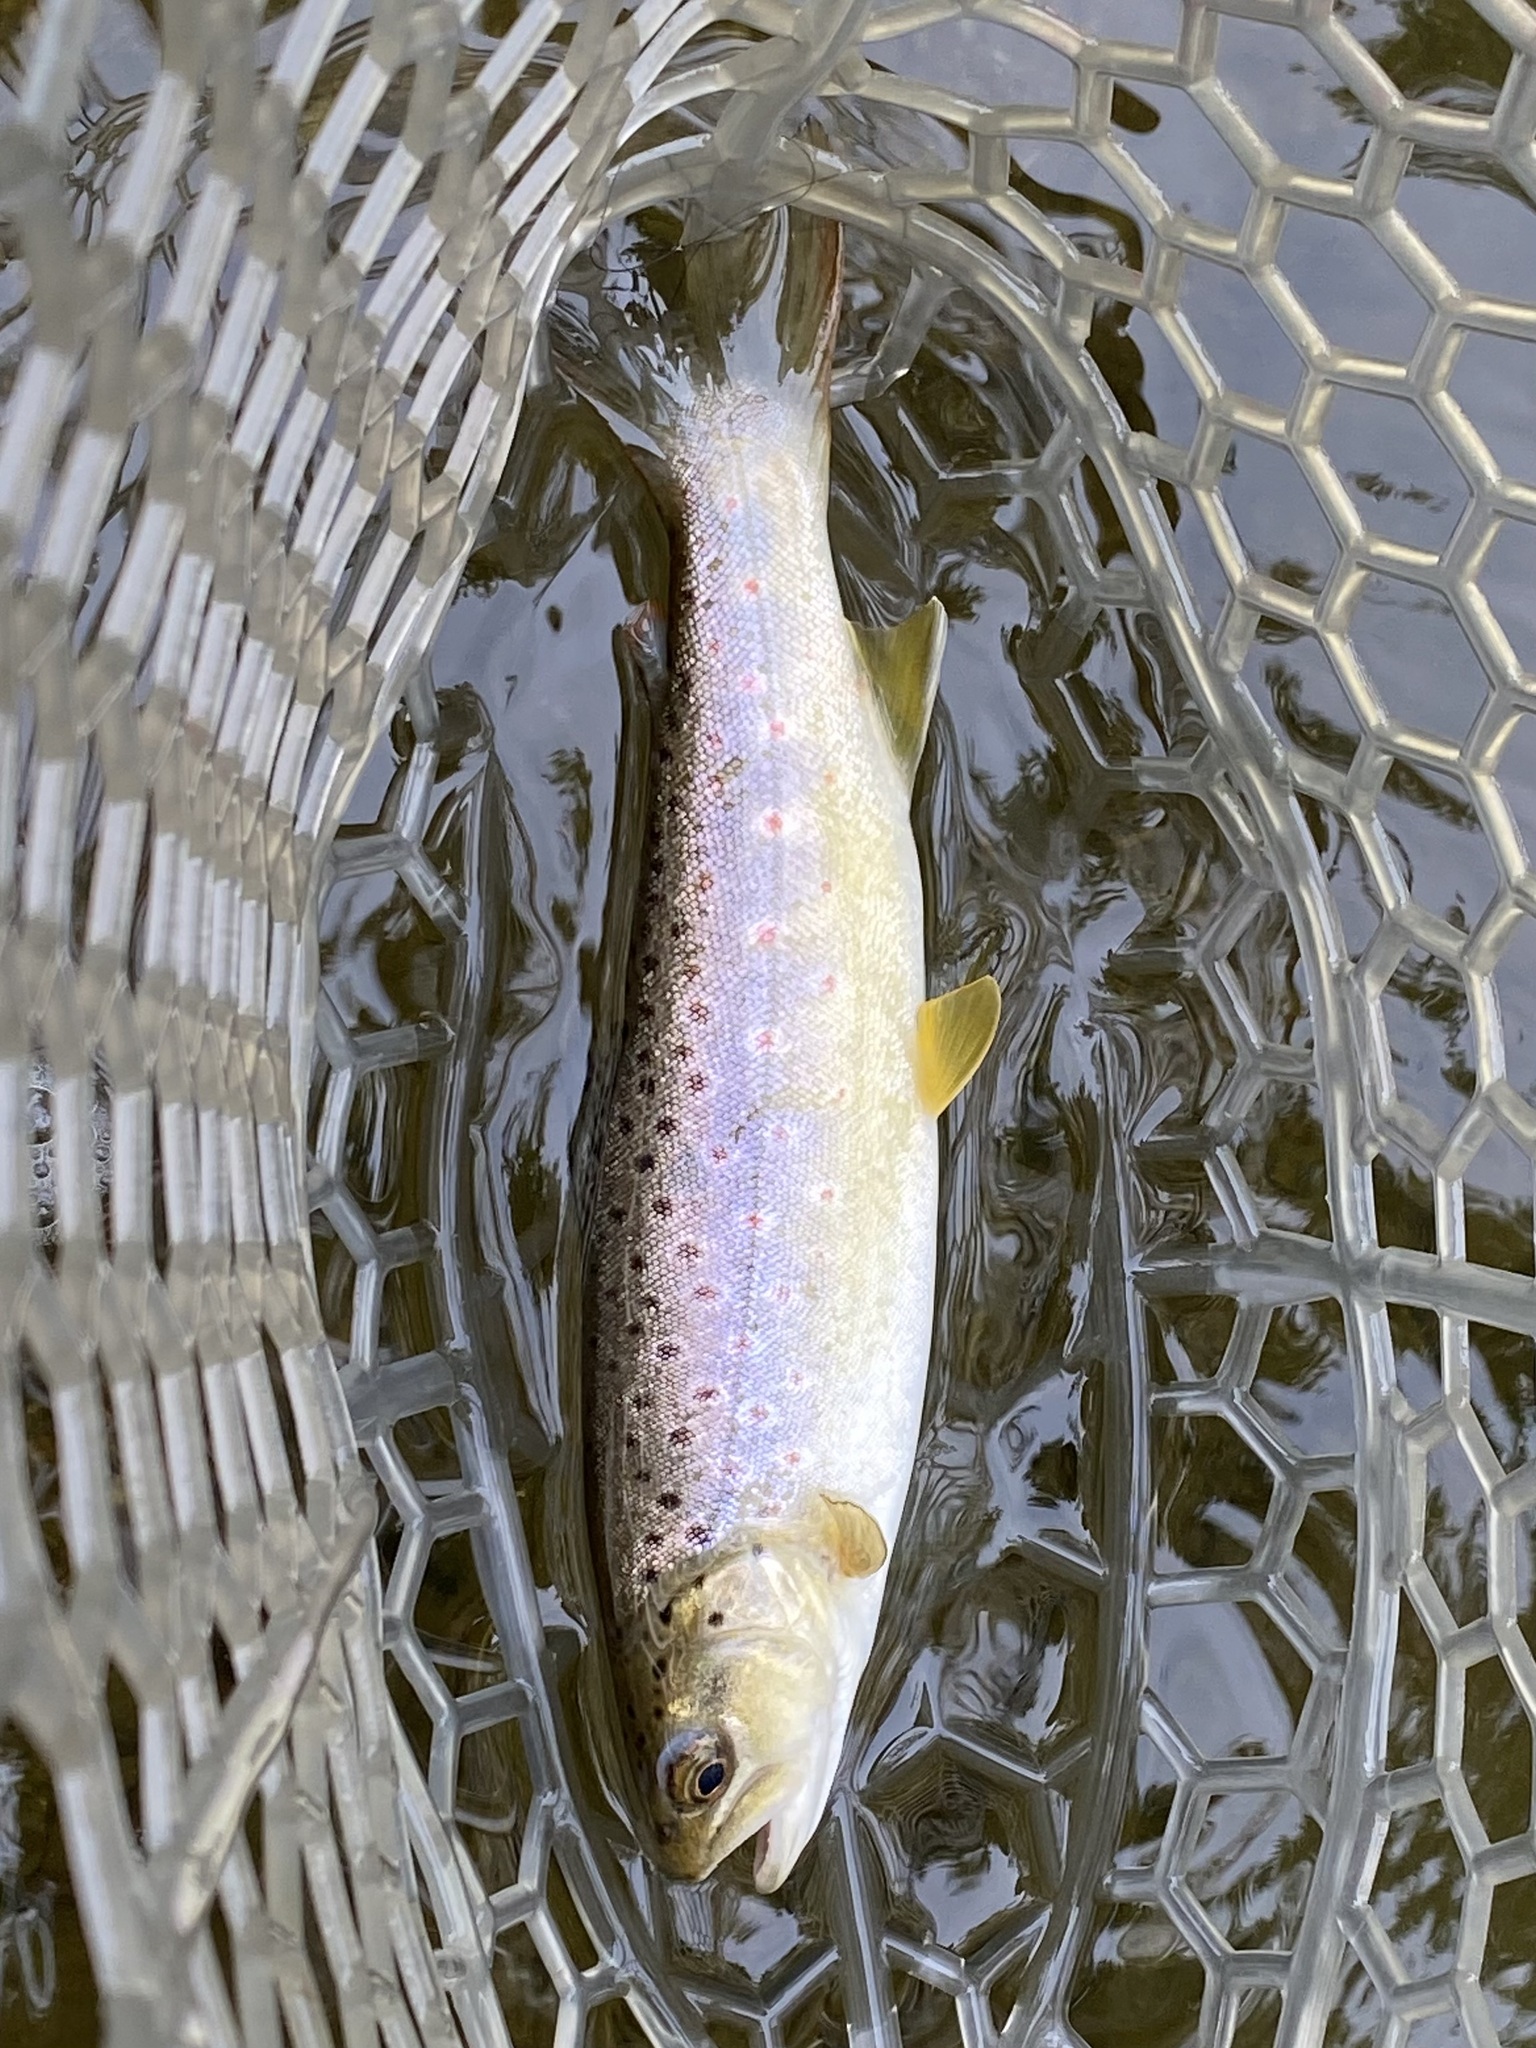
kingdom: Animalia
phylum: Chordata
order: Salmoniformes
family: Salmonidae
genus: Salmo
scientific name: Salmo trutta
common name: Brown trout
